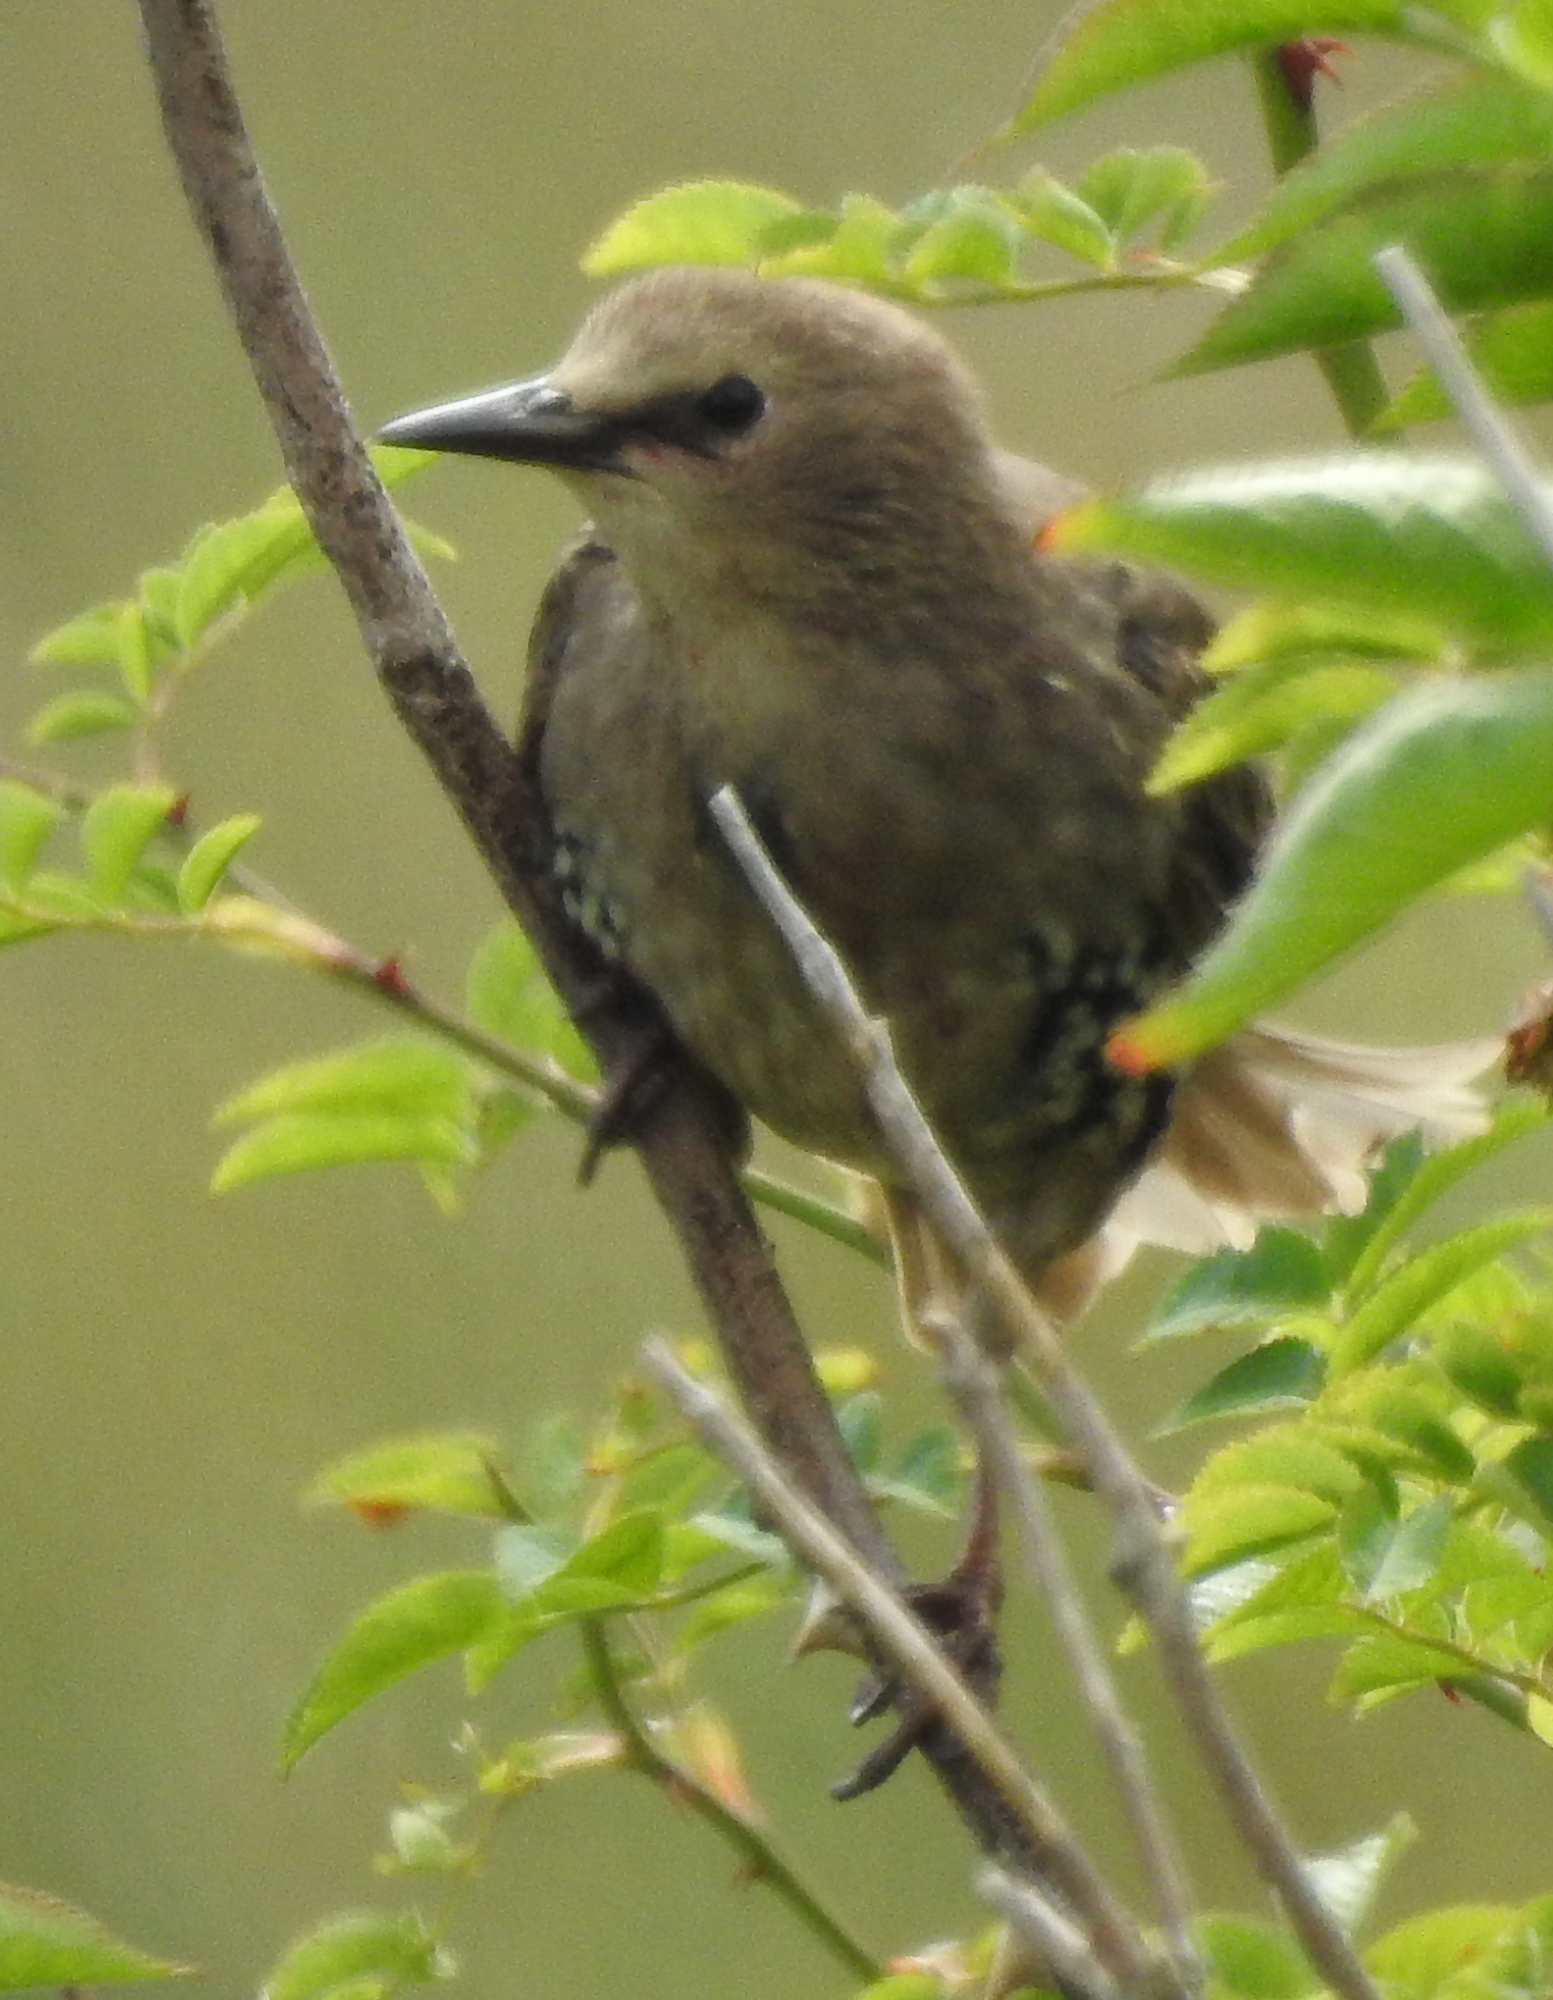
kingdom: Animalia
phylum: Chordata
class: Aves
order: Passeriformes
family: Sturnidae
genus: Sturnus
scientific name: Sturnus vulgaris
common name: Common starling
